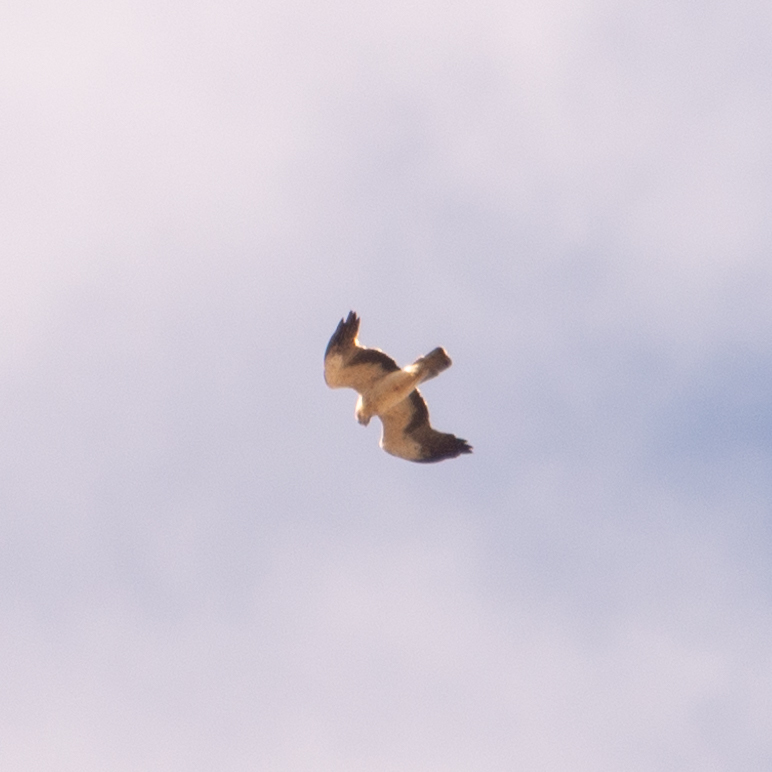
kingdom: Animalia
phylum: Chordata
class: Aves
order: Accipitriformes
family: Accipitridae
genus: Hieraaetus
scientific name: Hieraaetus pennatus
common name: Booted eagle
